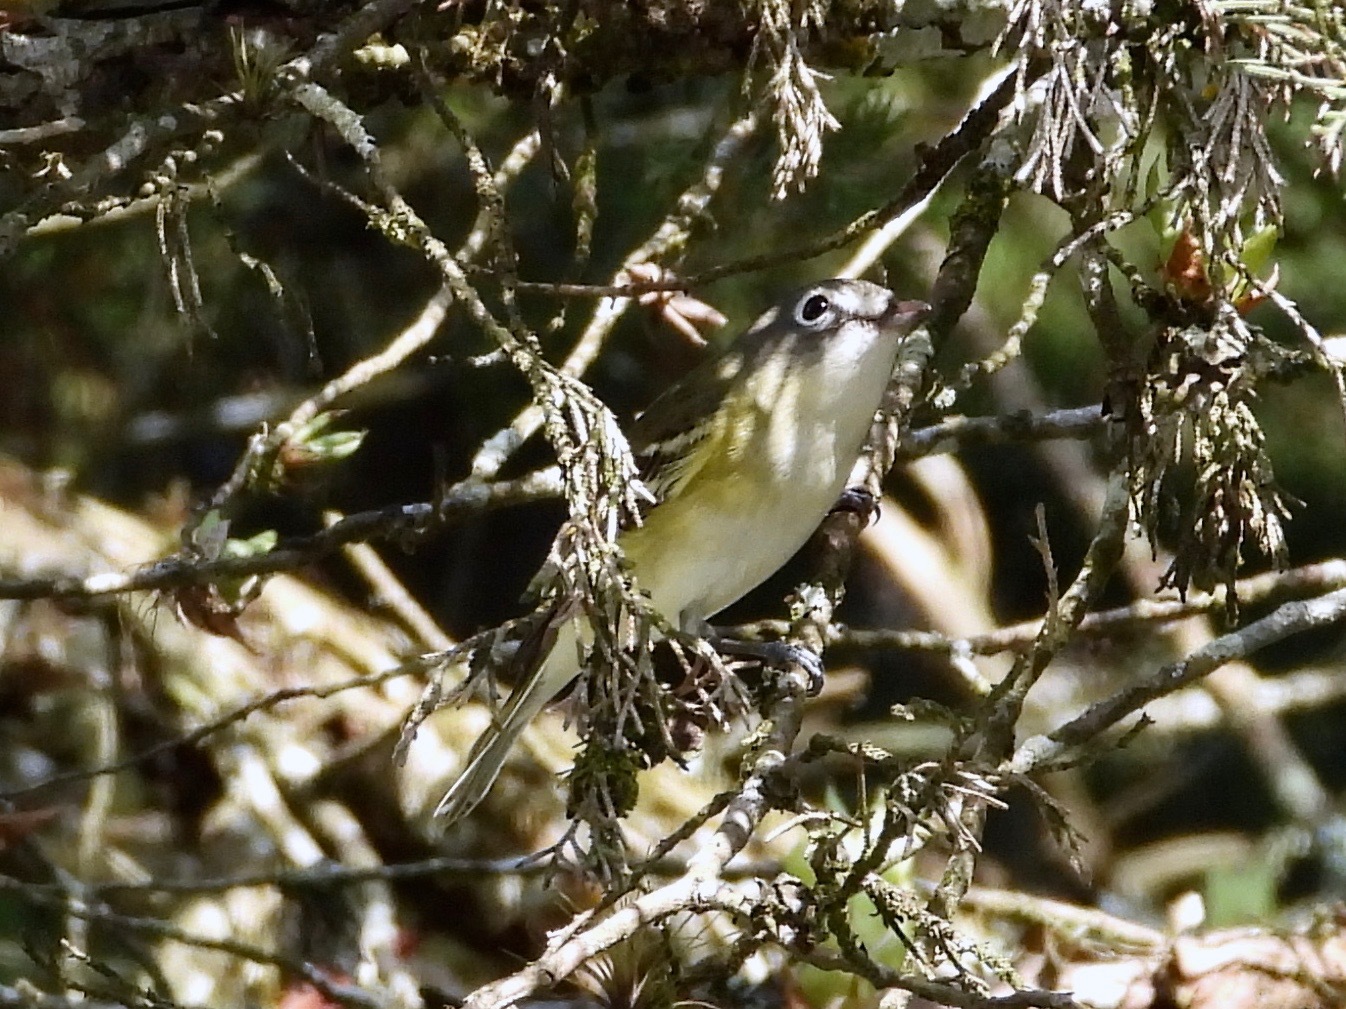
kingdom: Animalia
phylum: Chordata
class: Aves
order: Passeriformes
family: Vireonidae
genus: Vireo
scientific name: Vireo solitarius
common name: Blue-headed vireo
